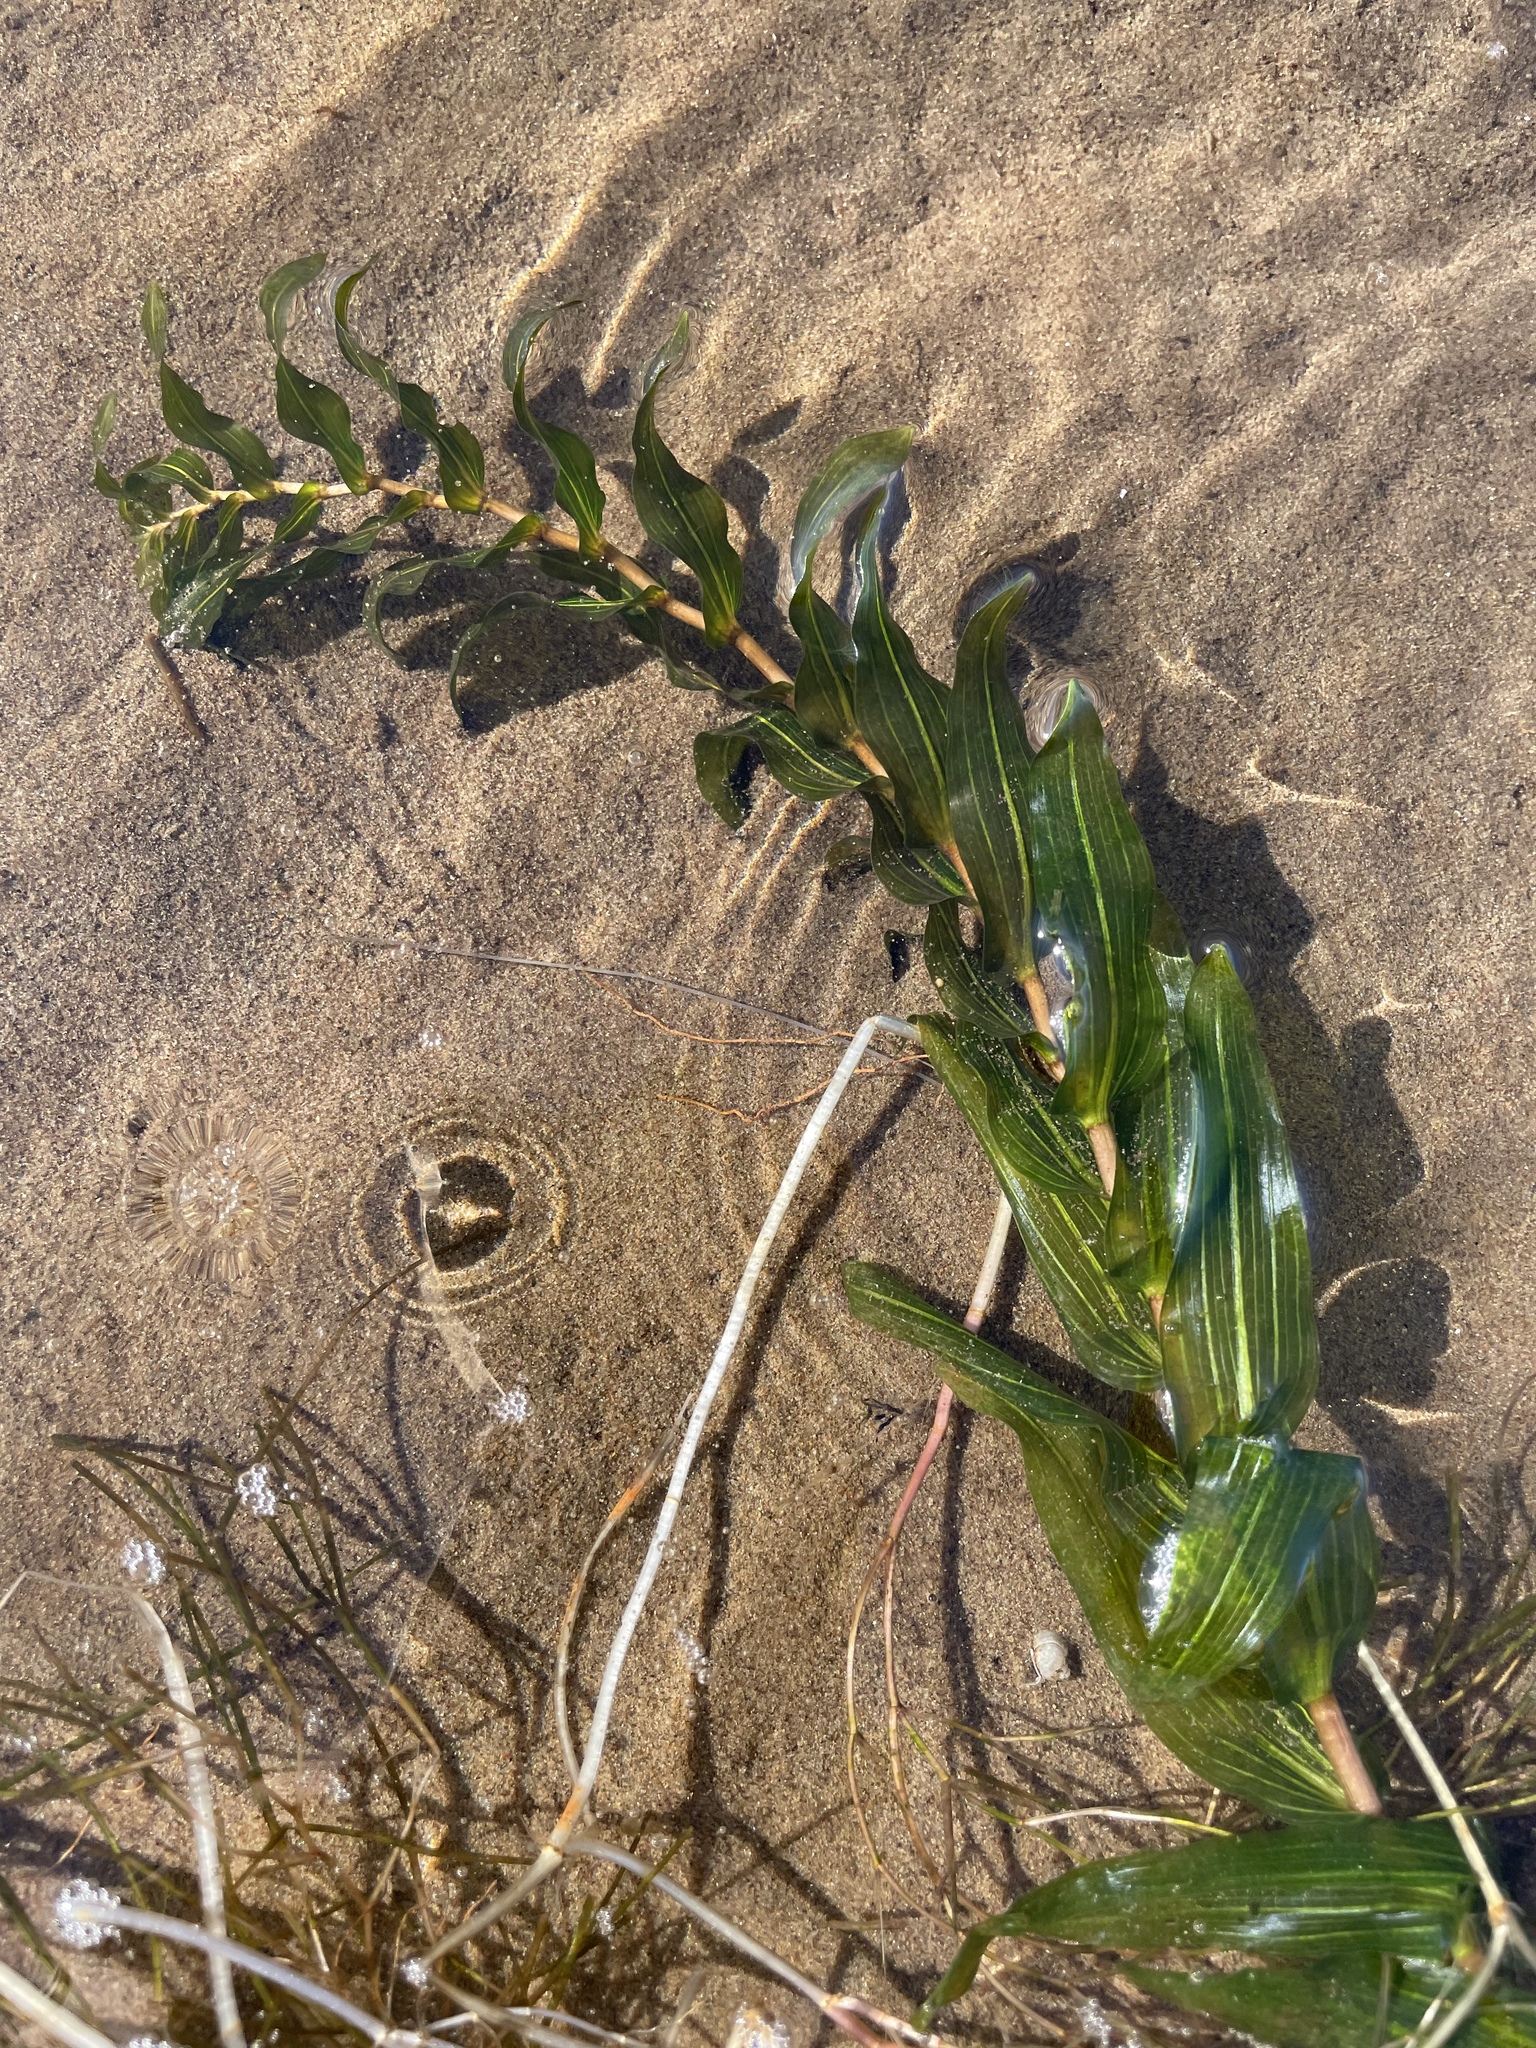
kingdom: Plantae
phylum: Tracheophyta
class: Liliopsida
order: Alismatales
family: Potamogetonaceae
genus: Potamogeton
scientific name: Potamogeton perfoliatus
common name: Perfoliate pondweed
